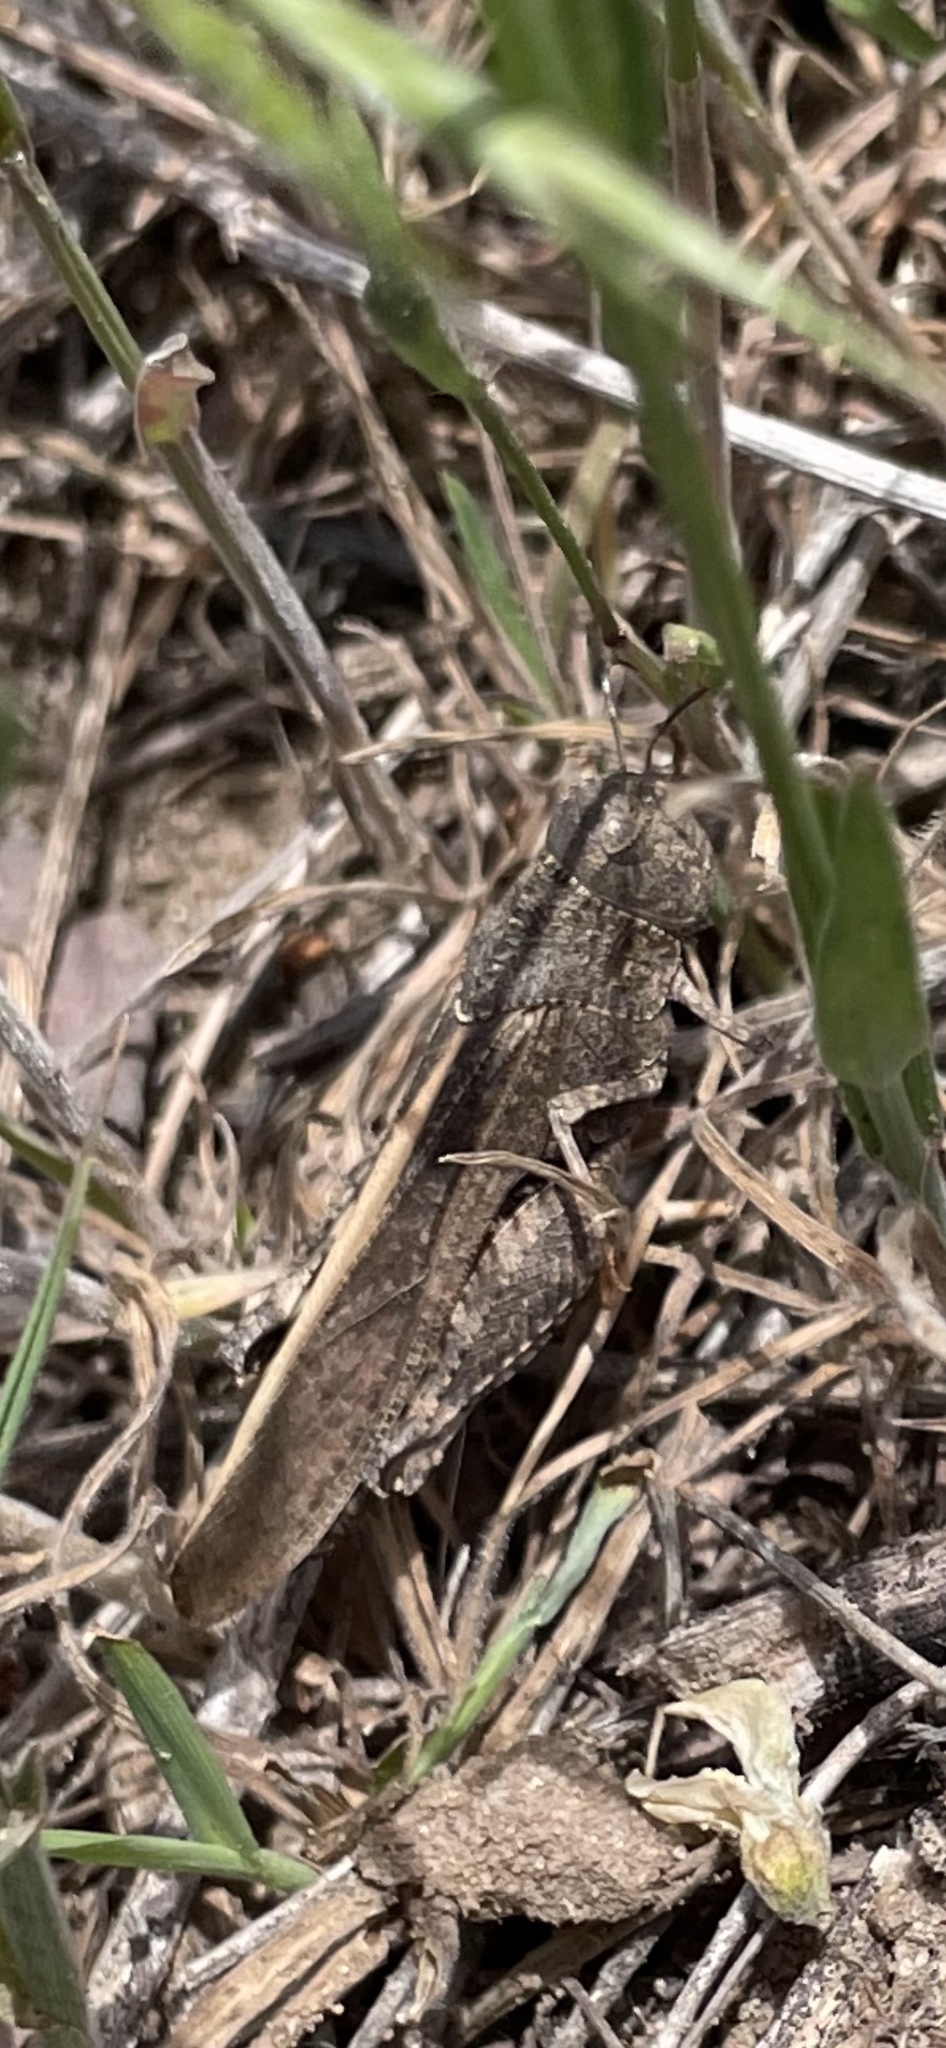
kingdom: Animalia
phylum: Arthropoda
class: Insecta
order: Orthoptera
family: Acrididae
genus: Arphia
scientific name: Arphia conspersa
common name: Speckle-winged rangeland grasshopper
